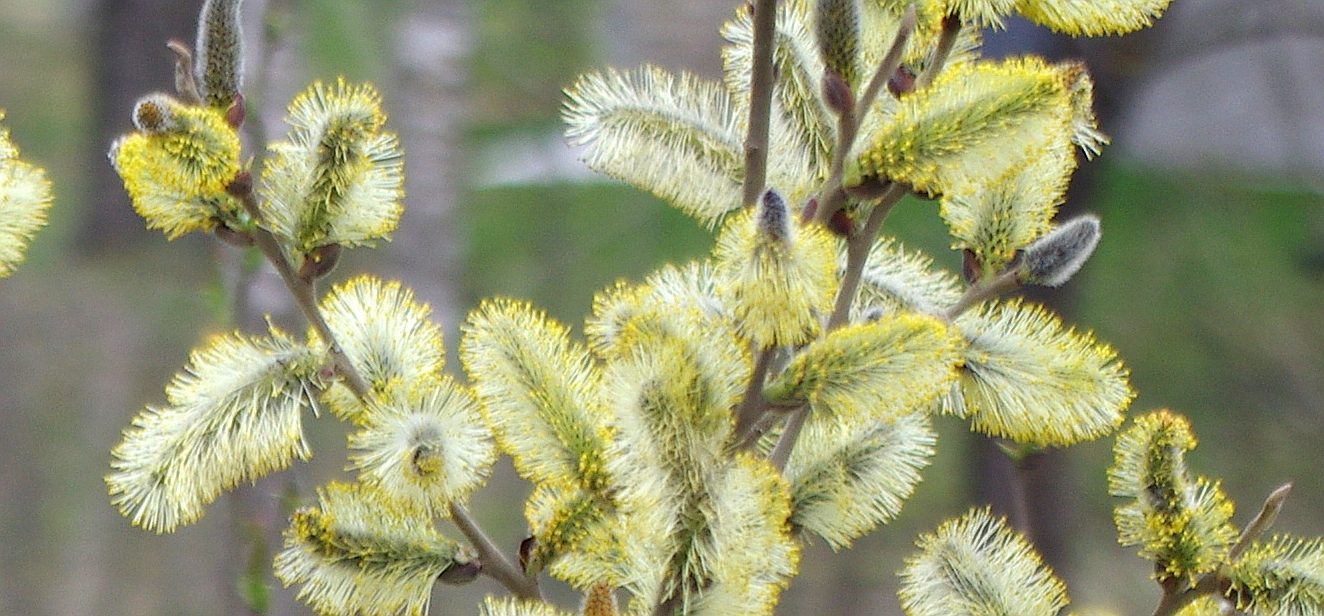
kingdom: Plantae
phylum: Tracheophyta
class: Magnoliopsida
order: Malpighiales
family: Salicaceae
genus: Salix
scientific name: Salix caprea
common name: Goat willow
